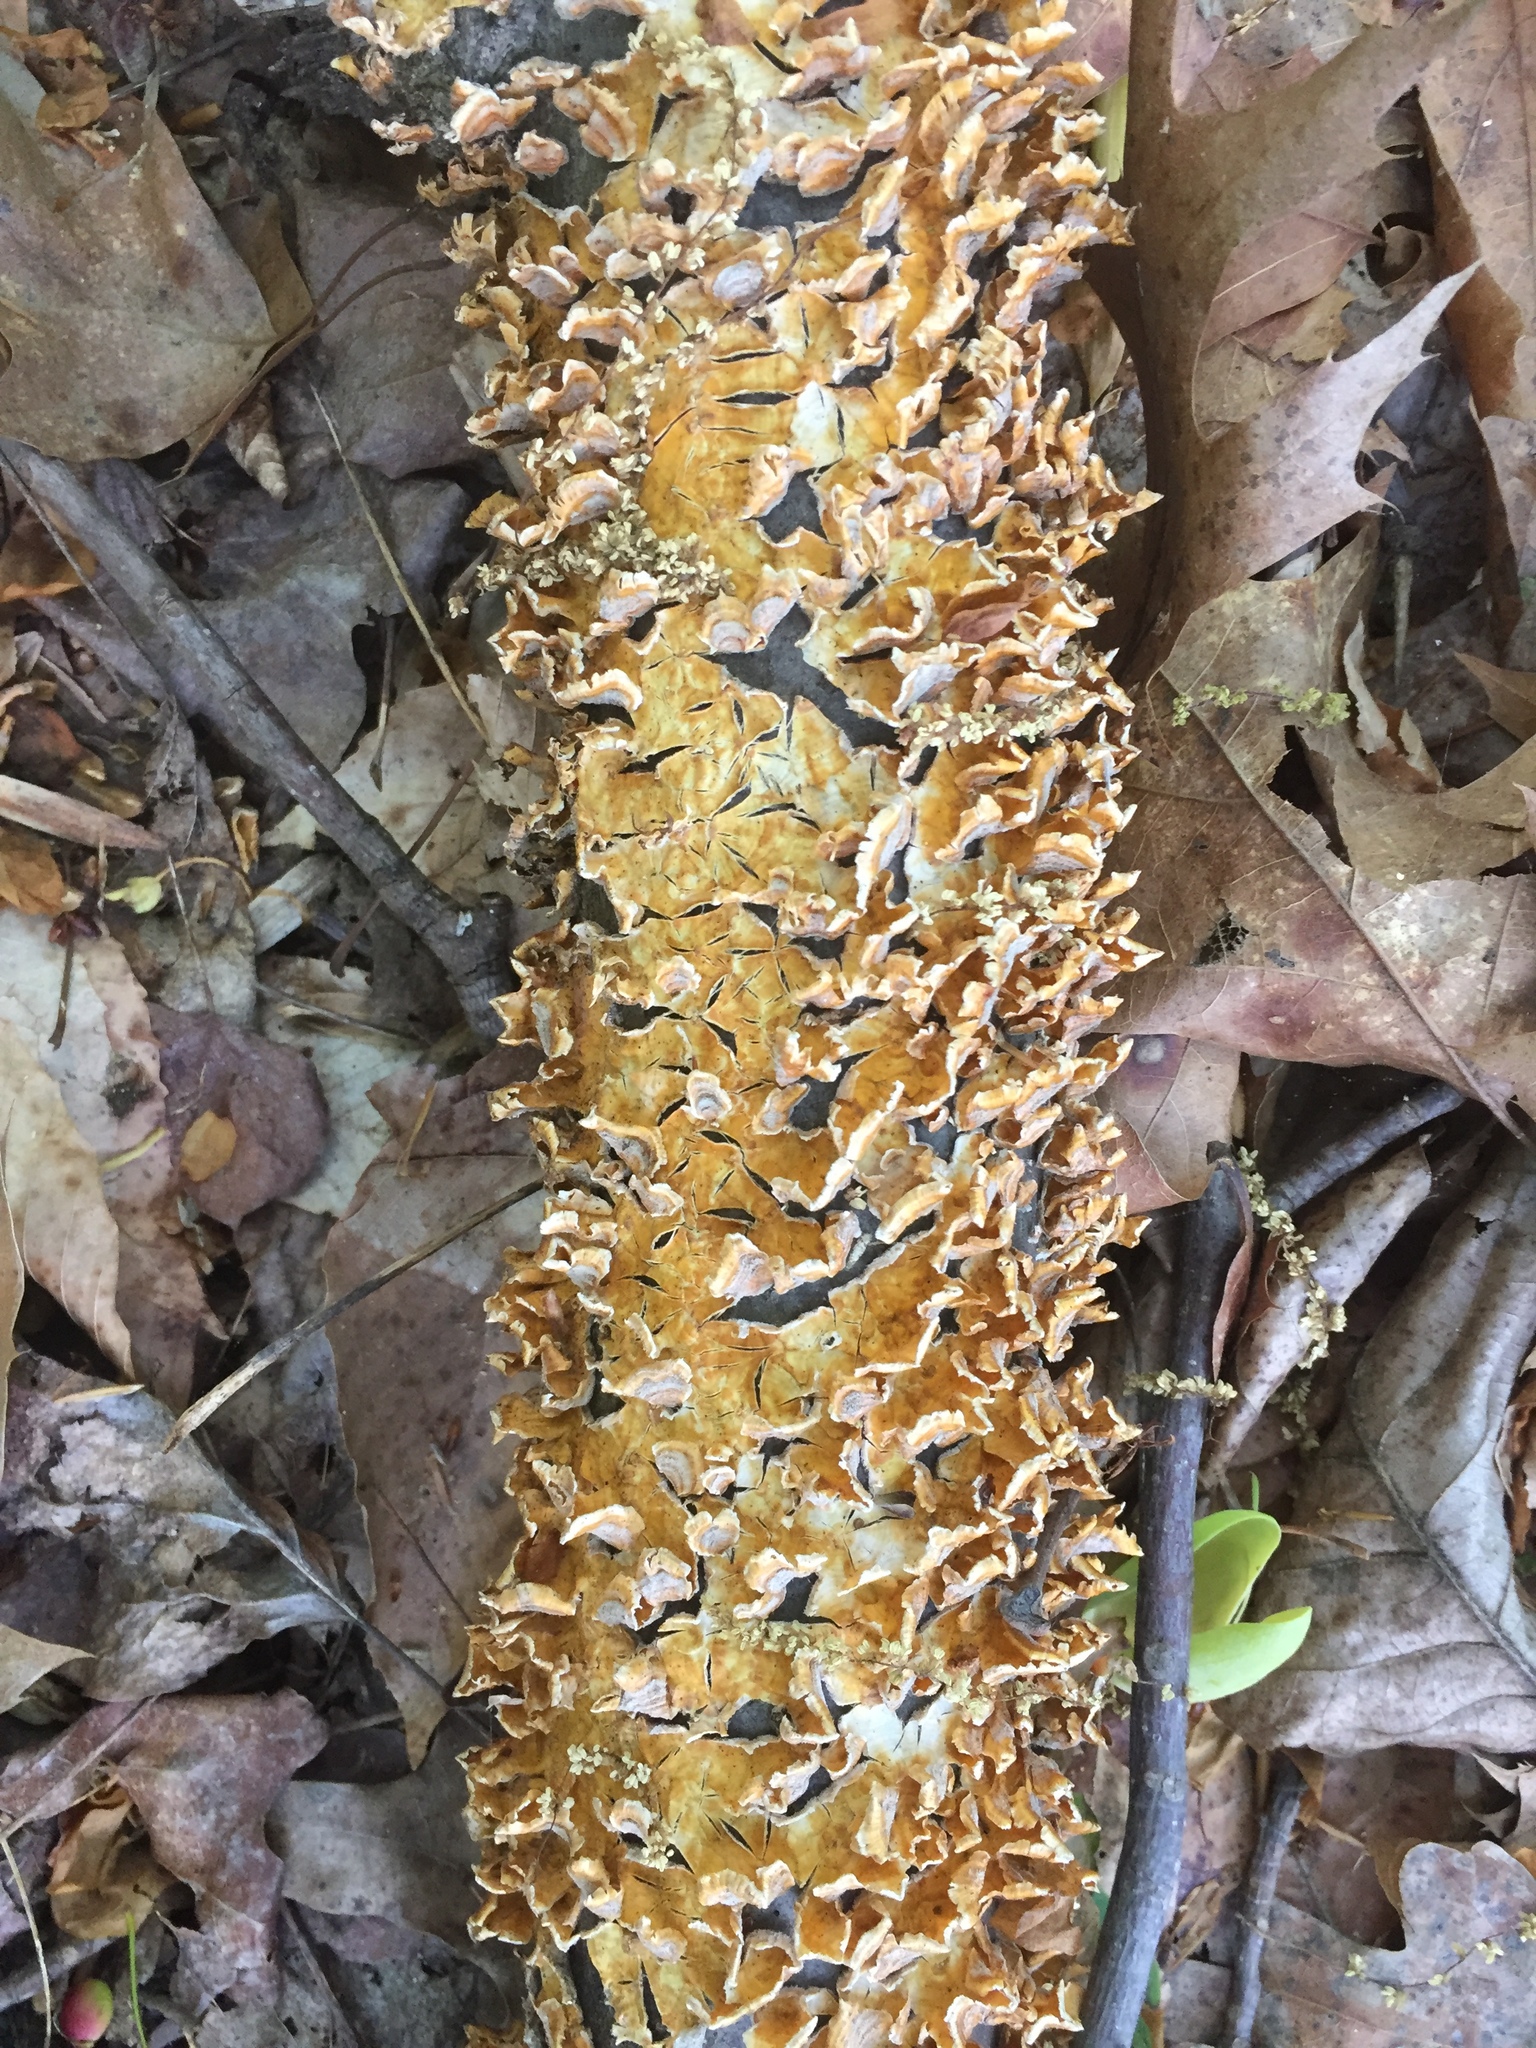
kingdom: Fungi
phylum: Basidiomycota
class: Agaricomycetes
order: Russulales
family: Stereaceae
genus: Stereum
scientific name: Stereum complicatum
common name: Crowded parchment
